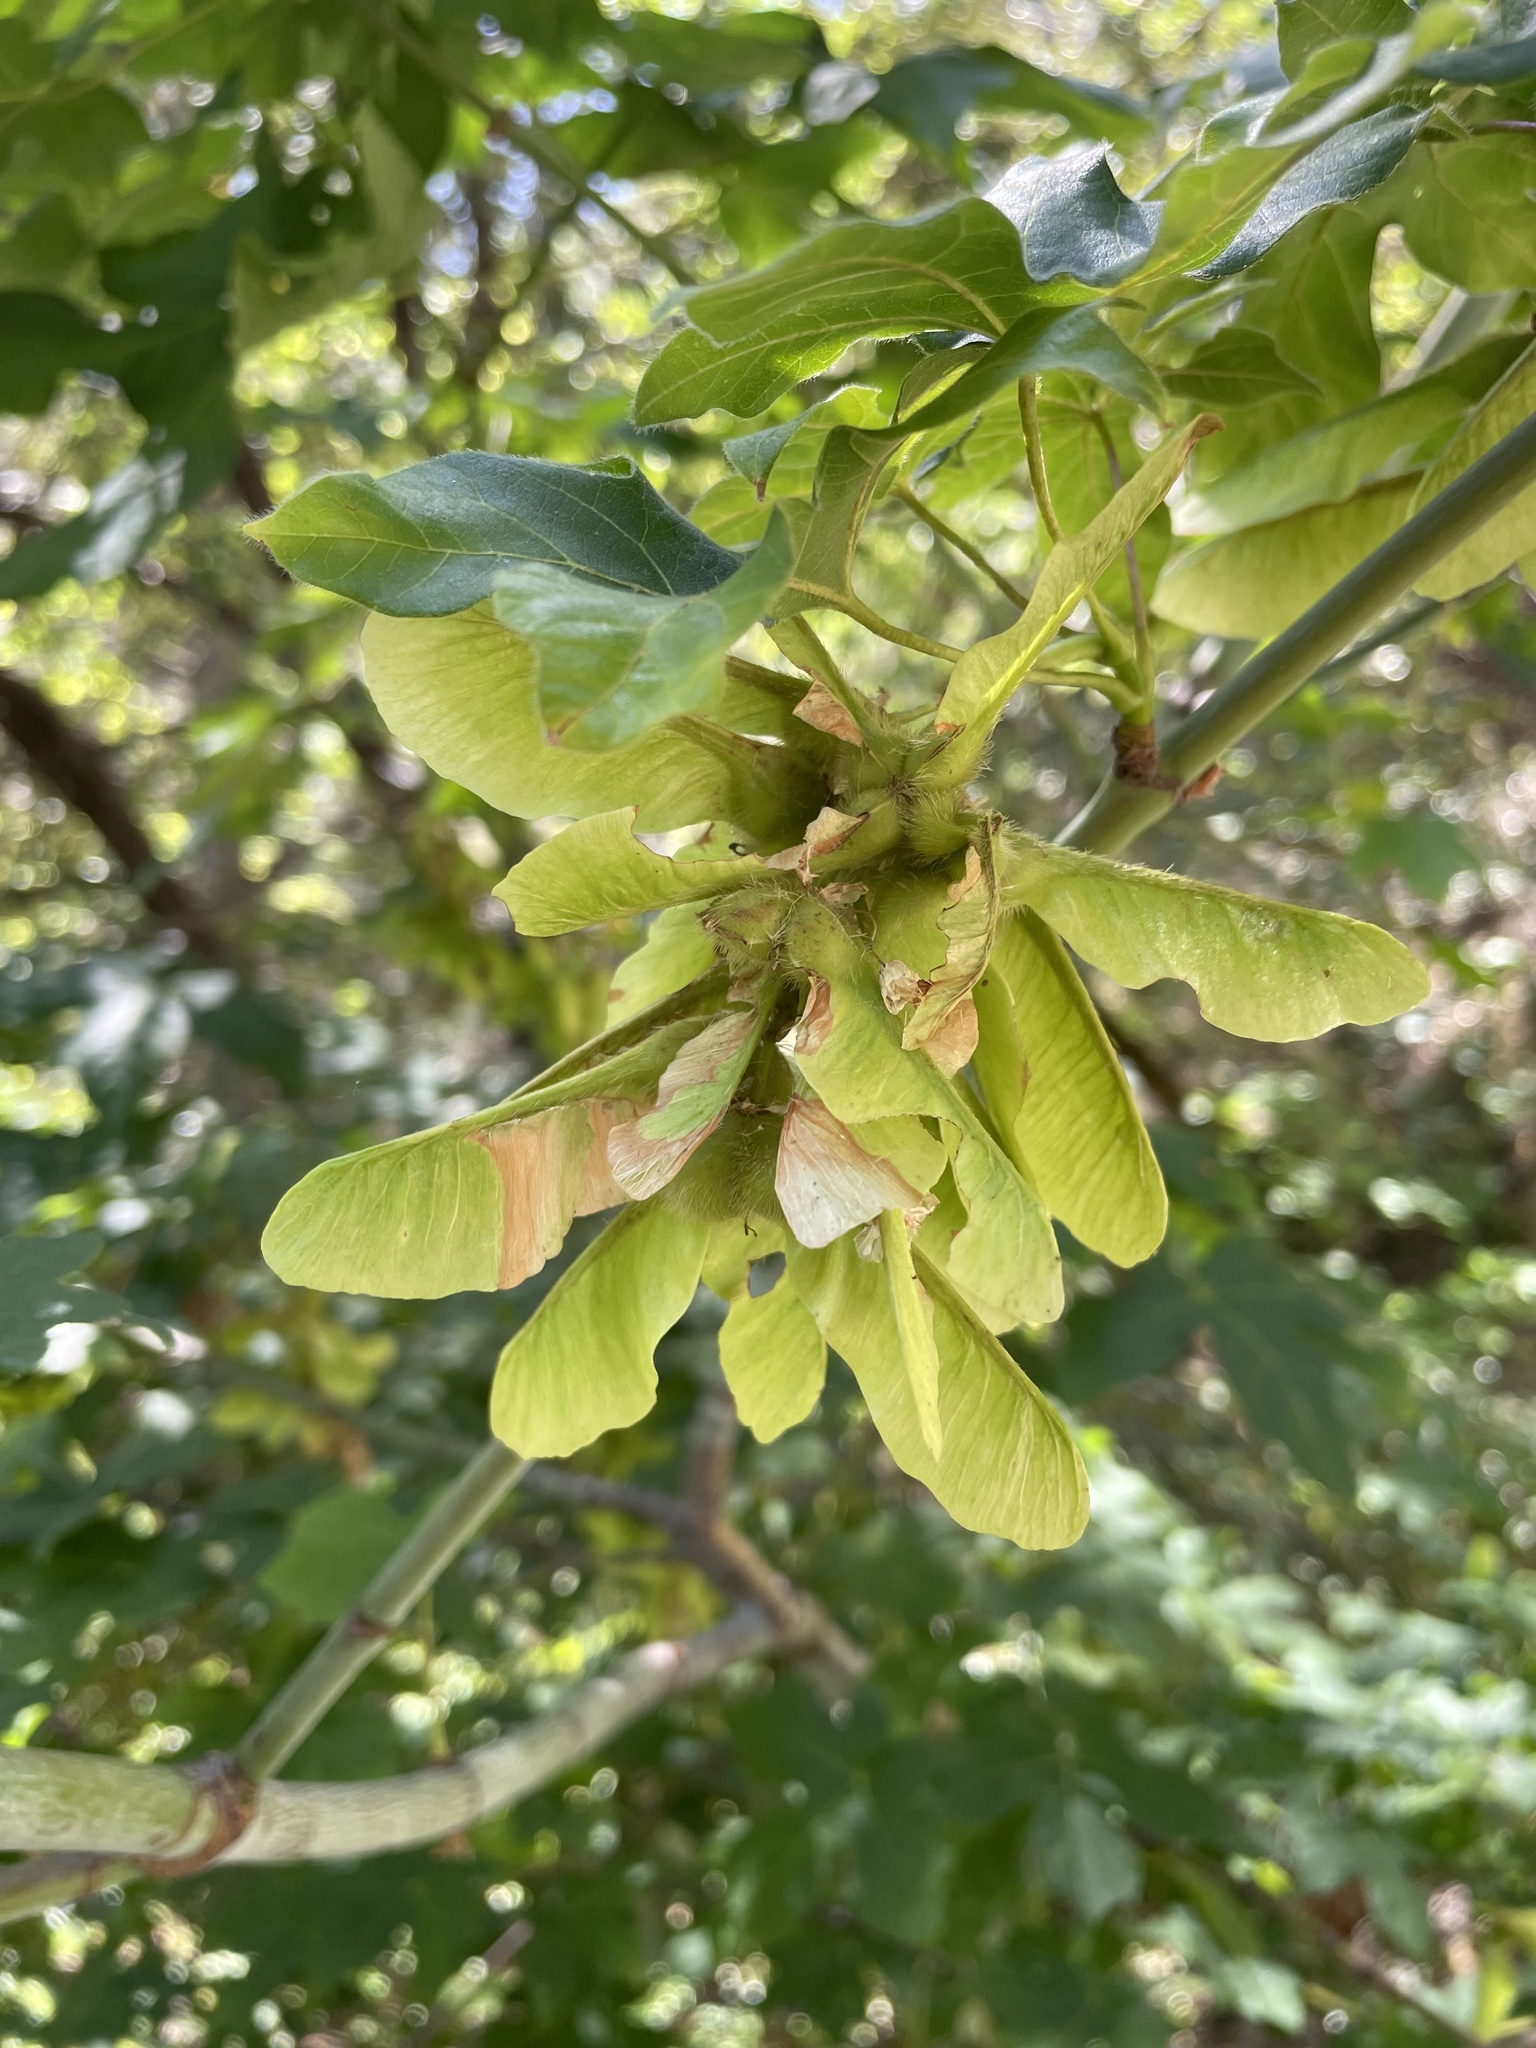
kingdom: Plantae
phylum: Tracheophyta
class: Magnoliopsida
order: Sapindales
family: Sapindaceae
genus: Acer
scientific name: Acer macrophyllum
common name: Oregon maple
